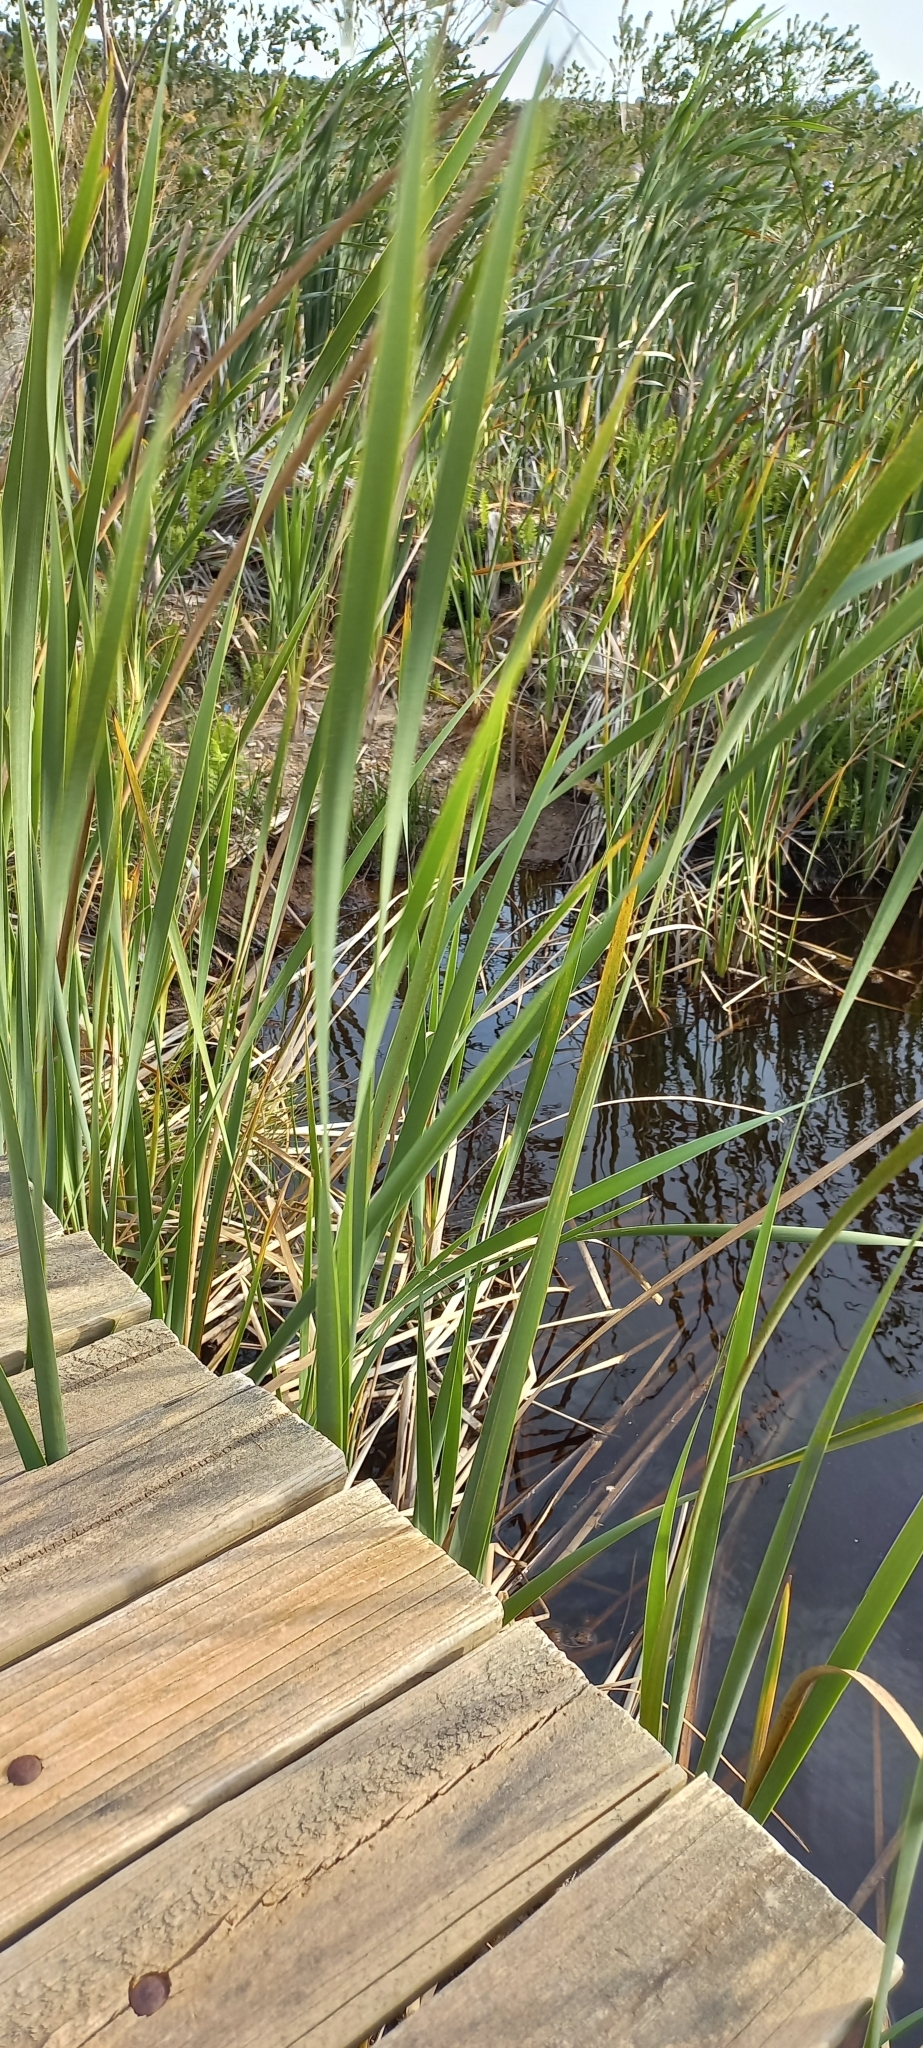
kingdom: Plantae
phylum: Tracheophyta
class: Liliopsida
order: Poales
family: Typhaceae
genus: Typha
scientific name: Typha capensis
